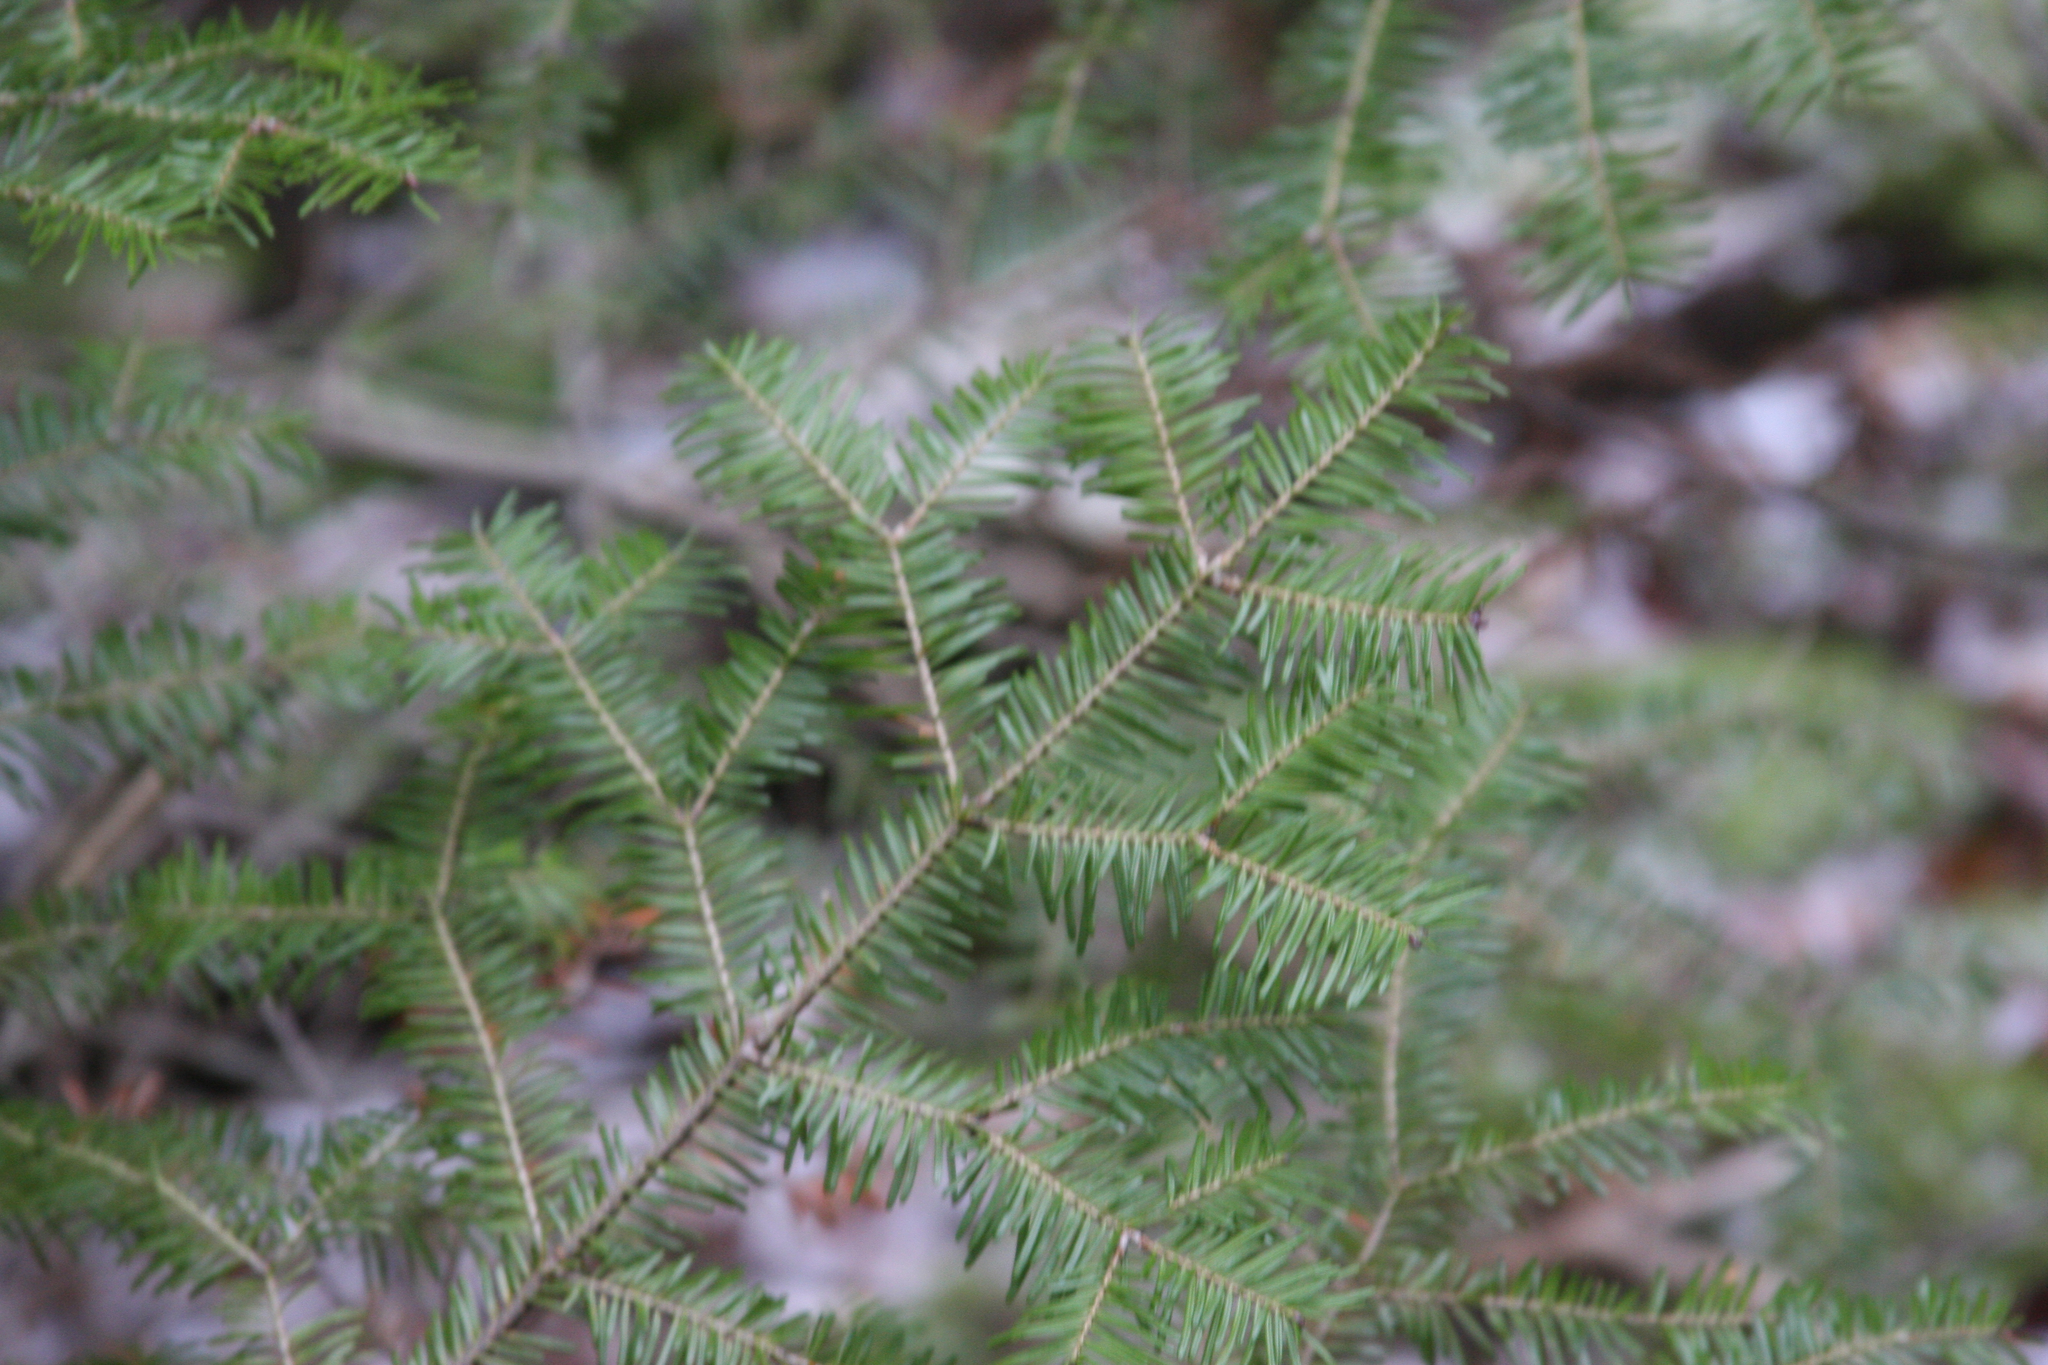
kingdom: Plantae
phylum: Tracheophyta
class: Pinopsida
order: Pinales
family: Pinaceae
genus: Abies
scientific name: Abies balsamea
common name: Balsam fir
